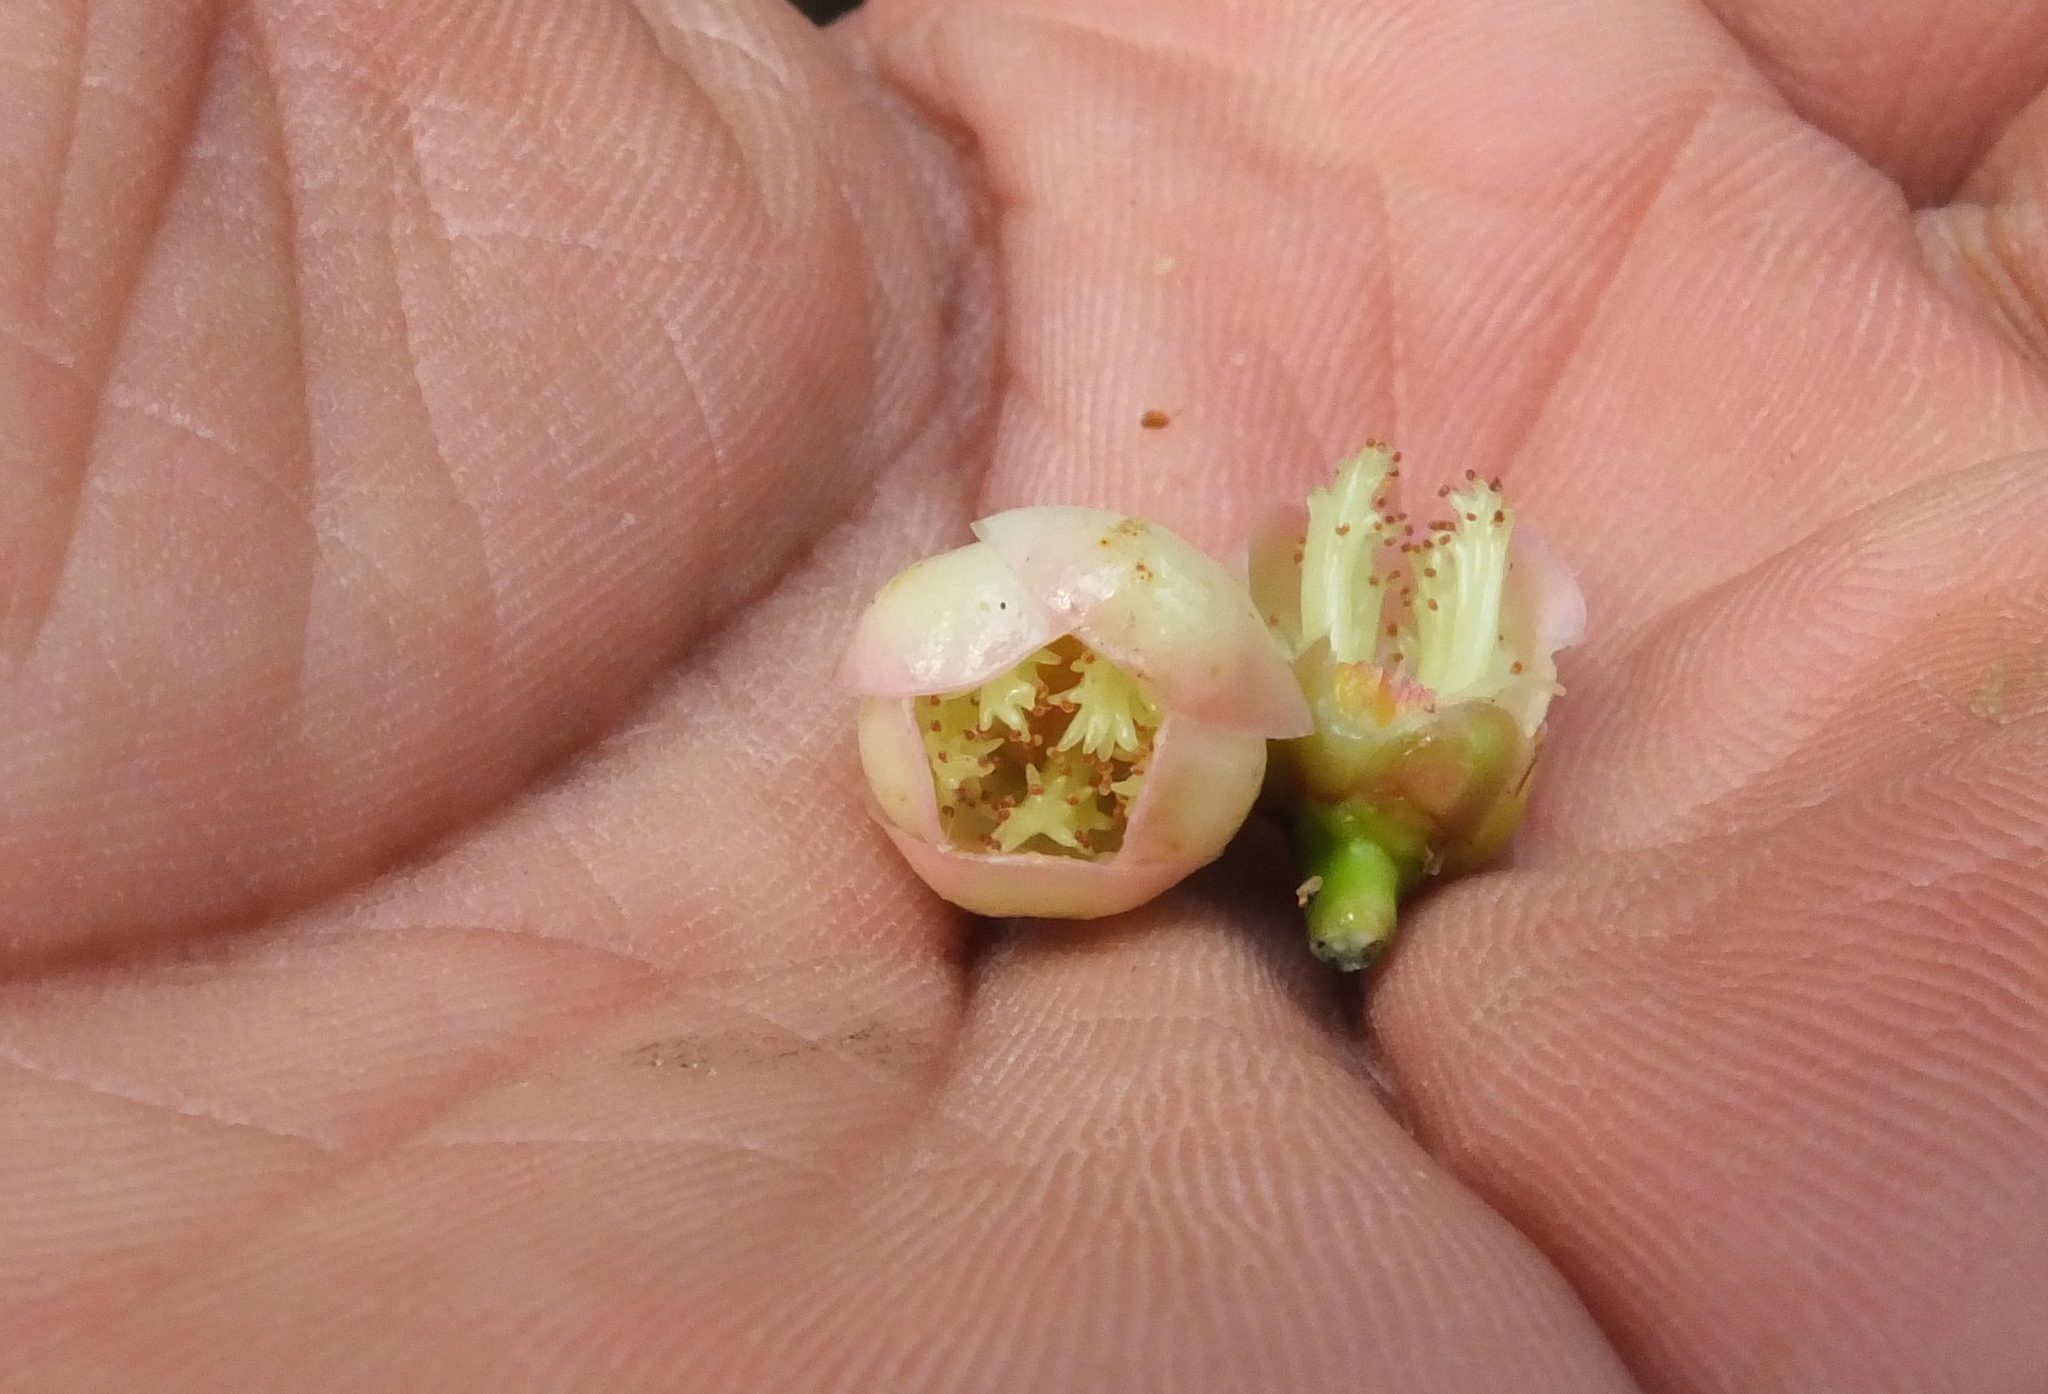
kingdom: Plantae
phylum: Tracheophyta
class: Magnoliopsida
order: Malpighiales
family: Clusiaceae
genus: Garcinia
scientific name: Garcinia talbotii
